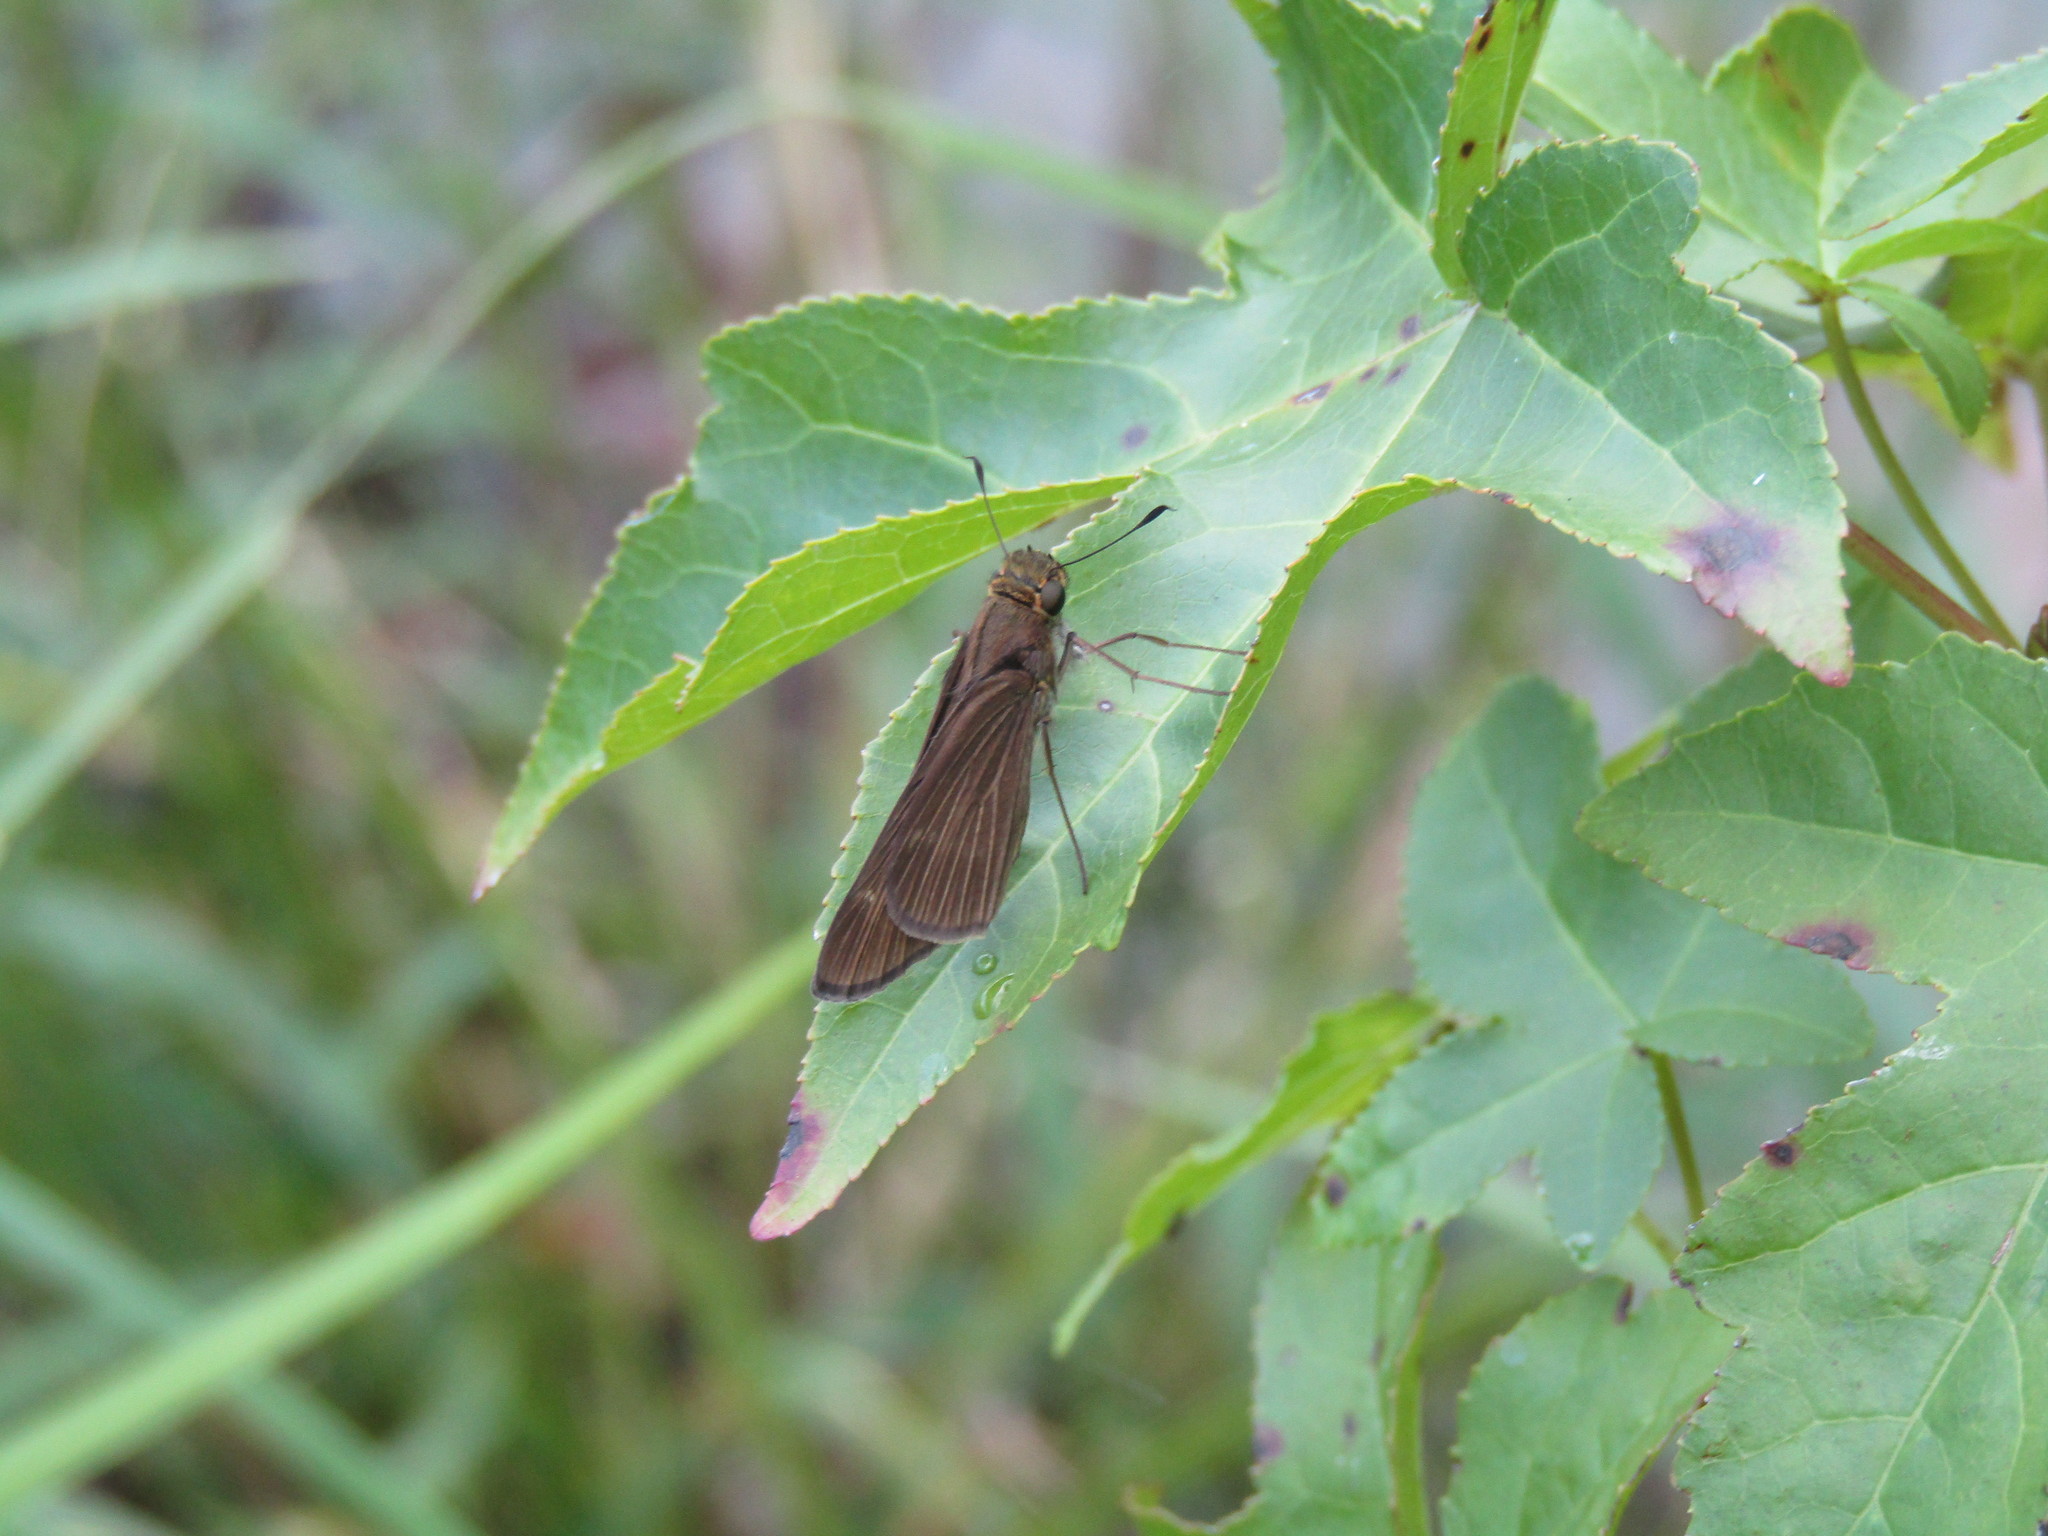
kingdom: Animalia
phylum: Arthropoda
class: Insecta
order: Lepidoptera
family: Hesperiidae
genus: Panoquina
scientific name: Panoquina ocola
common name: Ocola skipper
